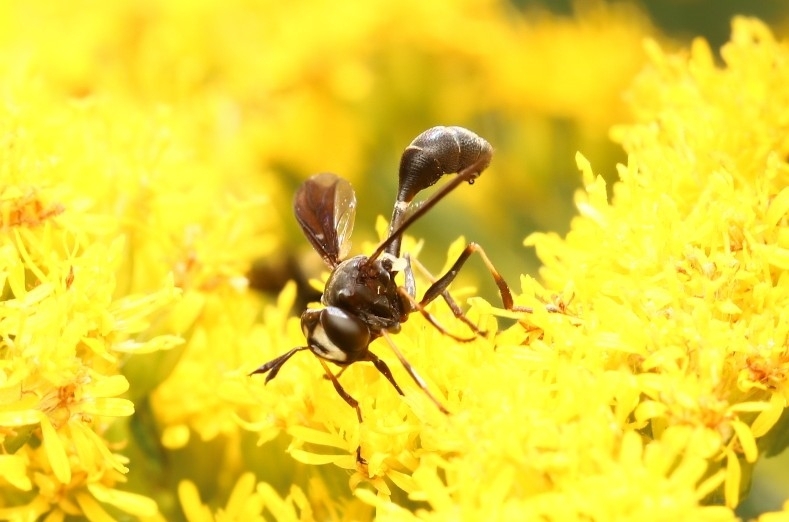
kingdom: Animalia
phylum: Arthropoda
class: Insecta
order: Diptera
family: Conopidae
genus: Physocephala
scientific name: Physocephala tibialis
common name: Common eastern physocephala
